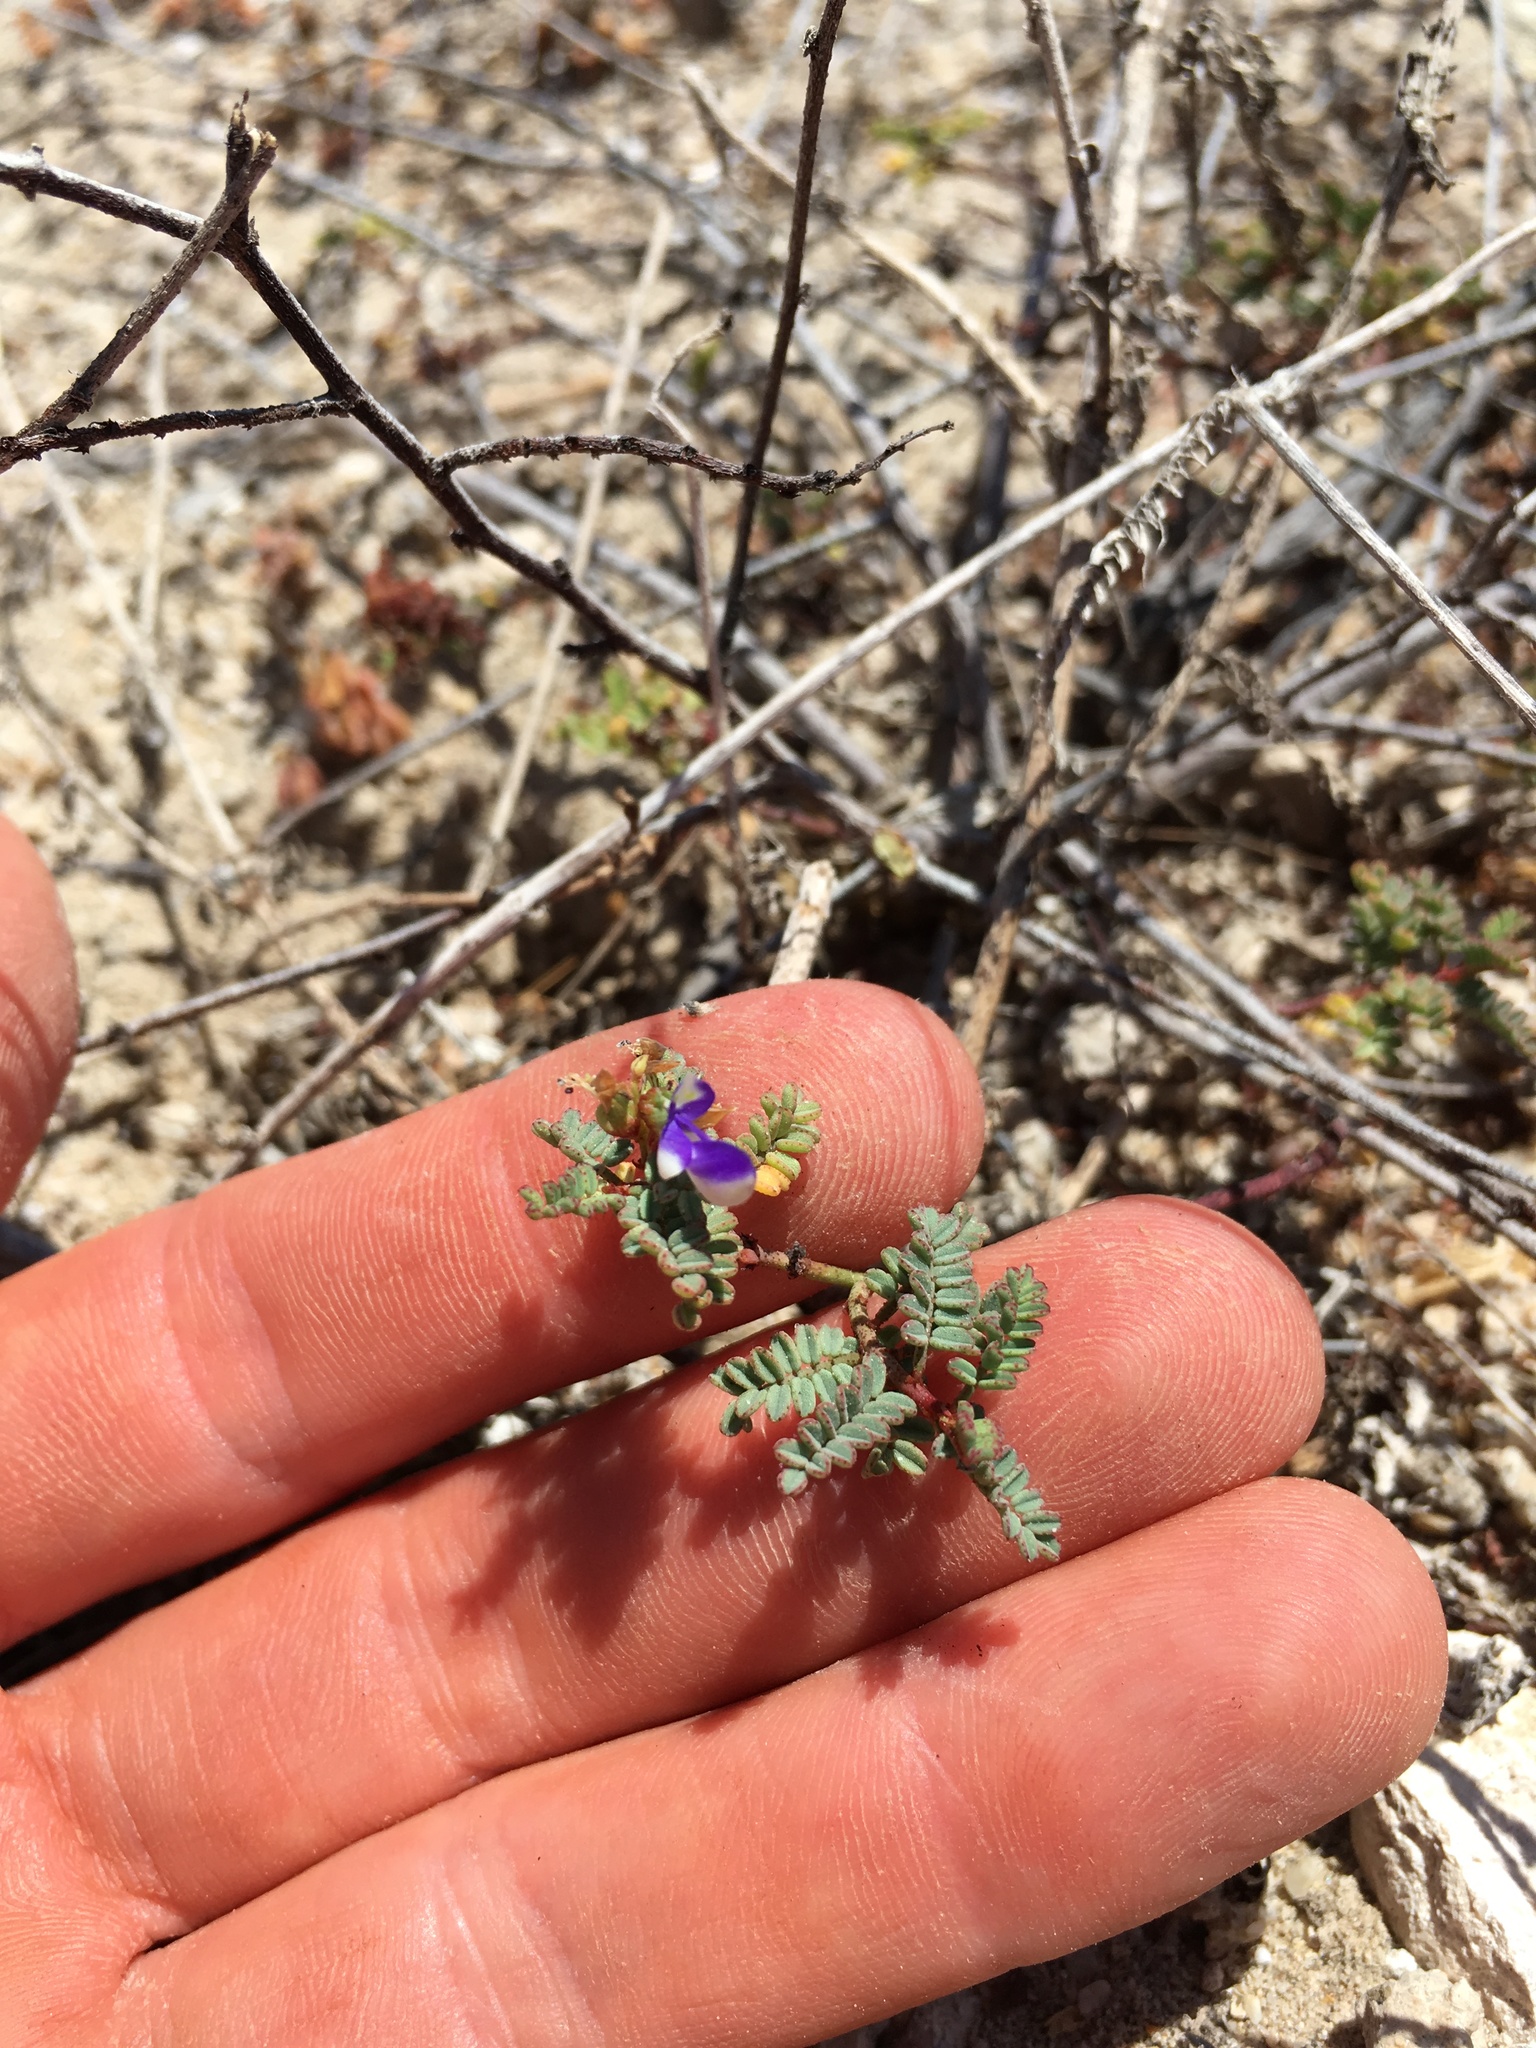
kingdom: Plantae
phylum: Tracheophyta
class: Magnoliopsida
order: Fabales
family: Fabaceae
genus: Marina
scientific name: Marina divaricata
